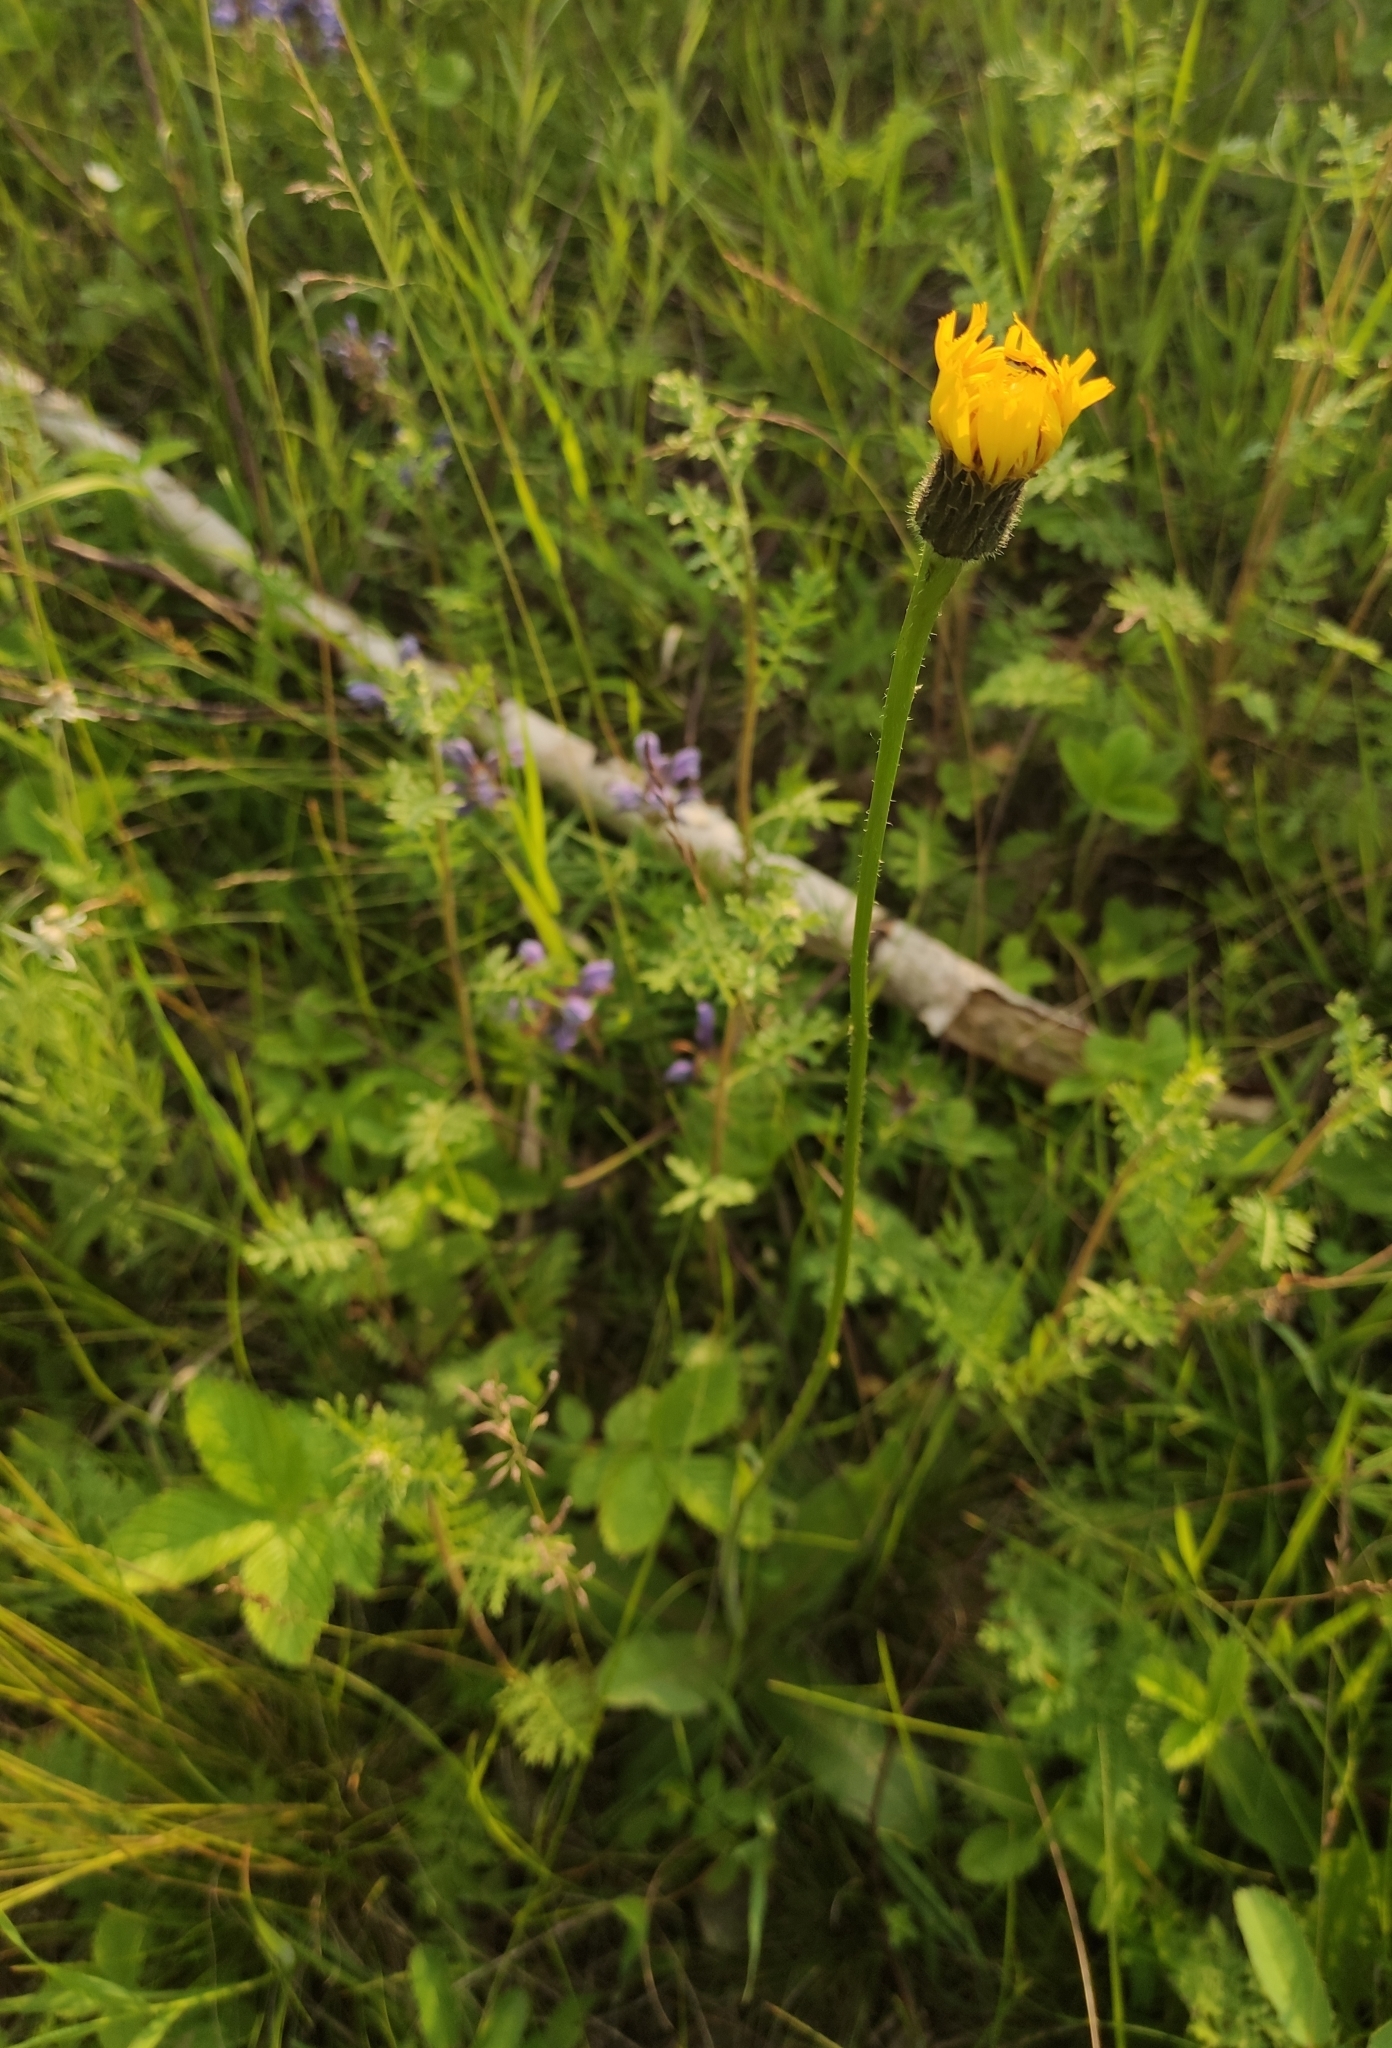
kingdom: Plantae
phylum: Tracheophyta
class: Magnoliopsida
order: Asterales
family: Asteraceae
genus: Trommsdorffia
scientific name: Trommsdorffia maculata
